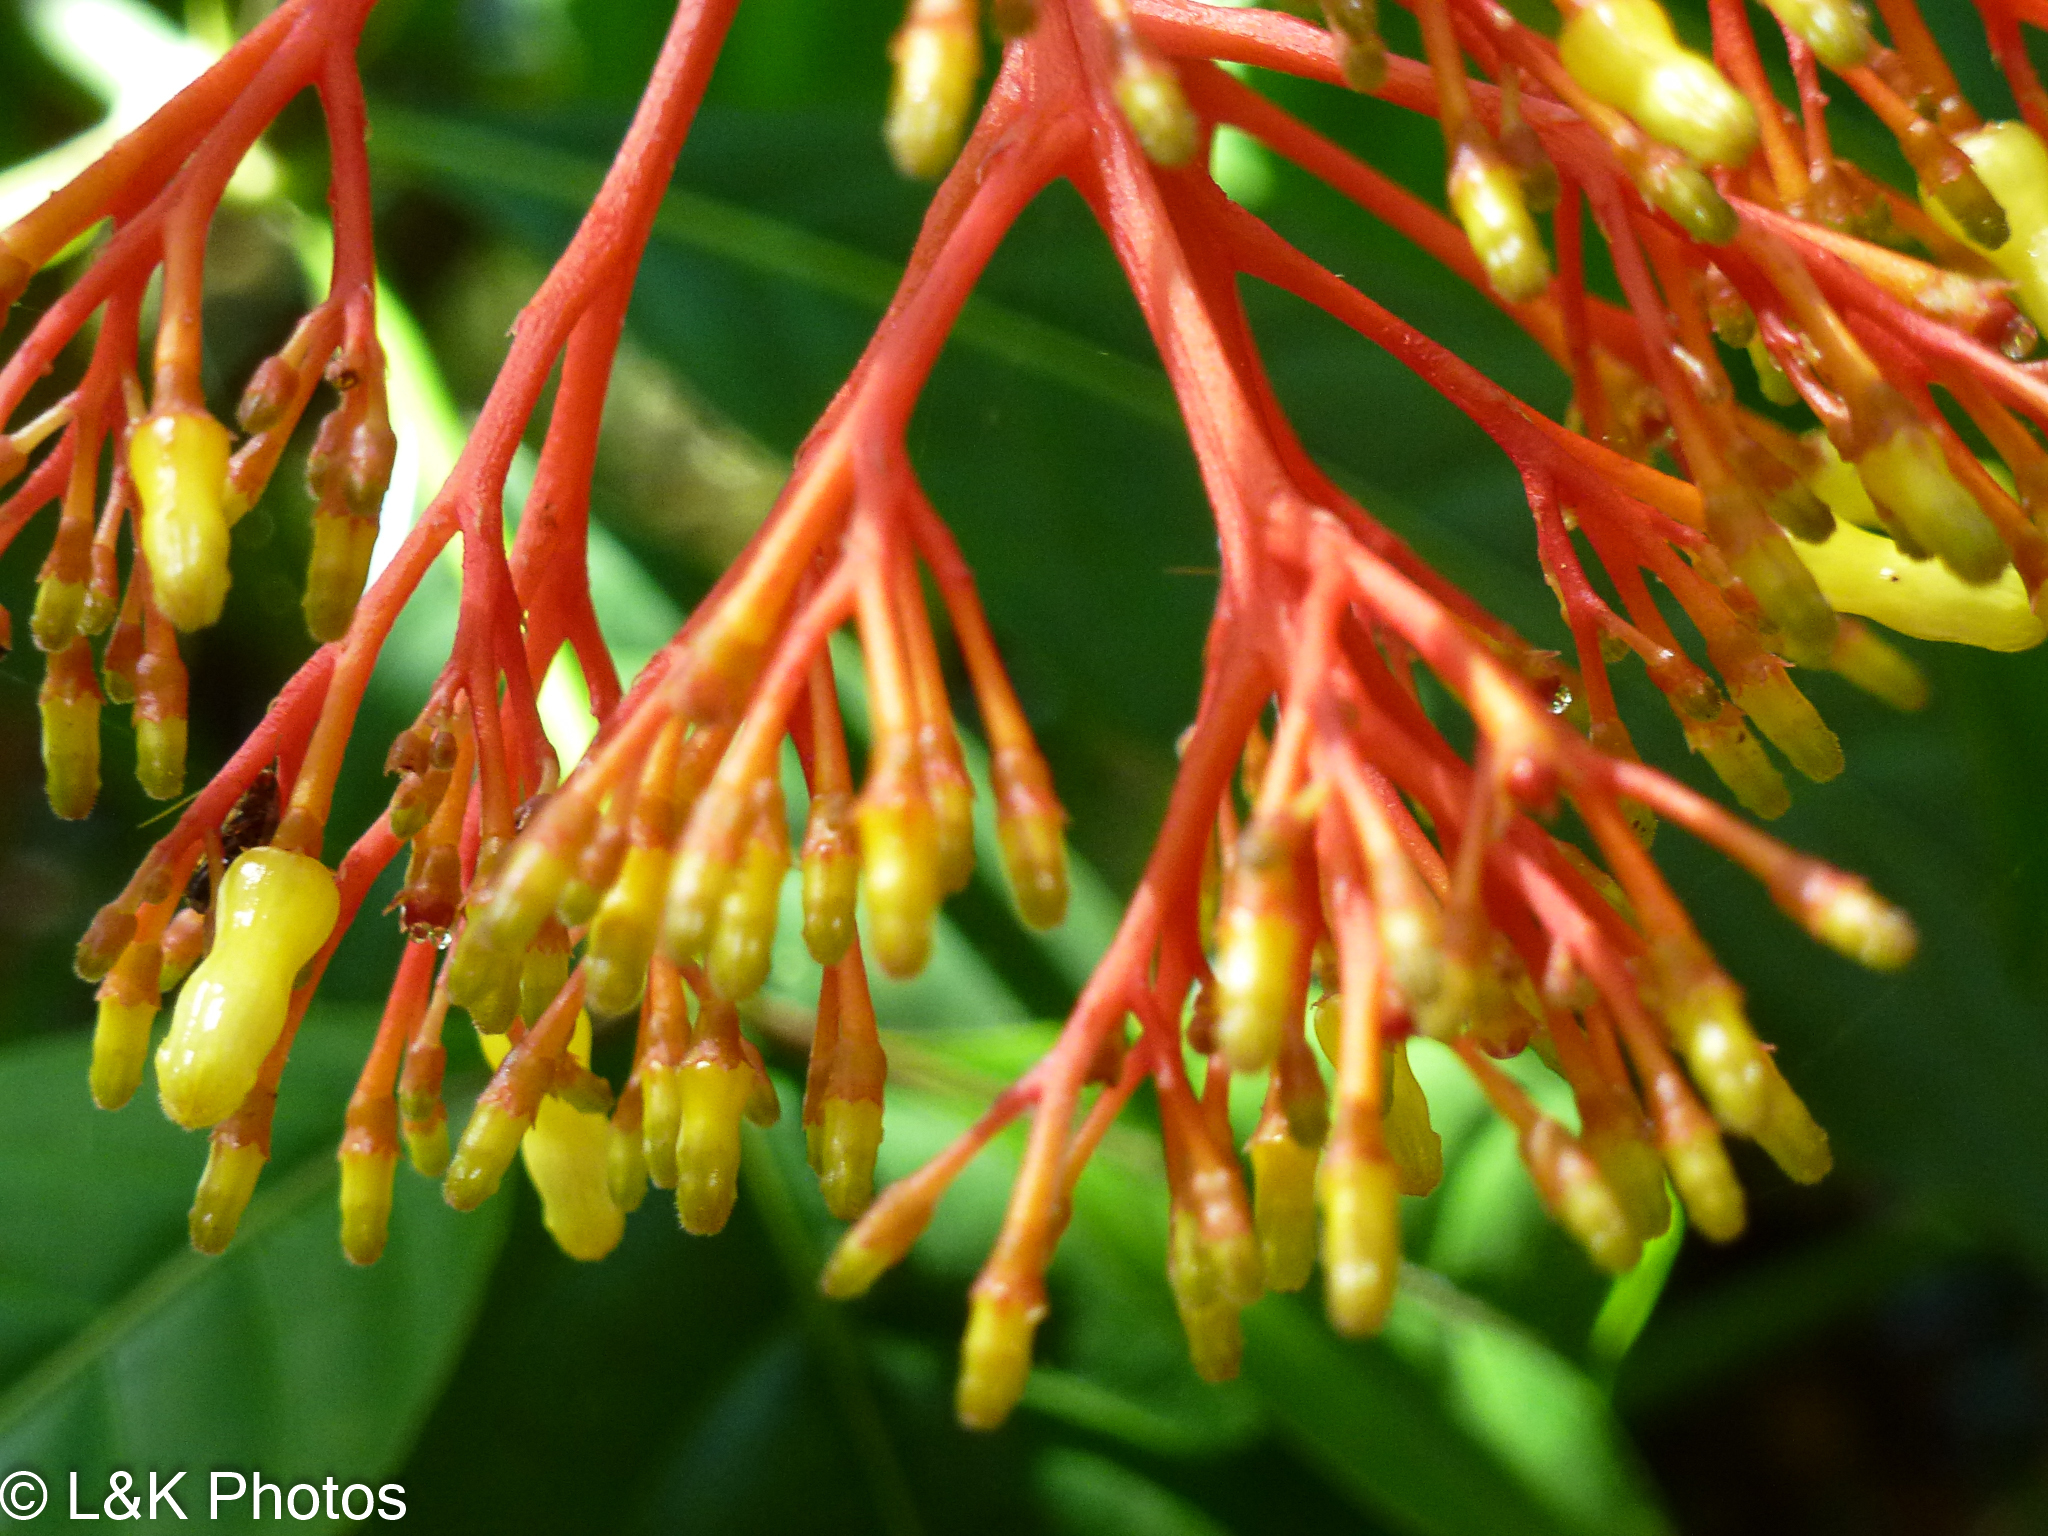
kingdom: Plantae
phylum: Tracheophyta
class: Magnoliopsida
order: Gentianales
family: Rubiaceae
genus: Palicourea
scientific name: Palicourea croceoides
